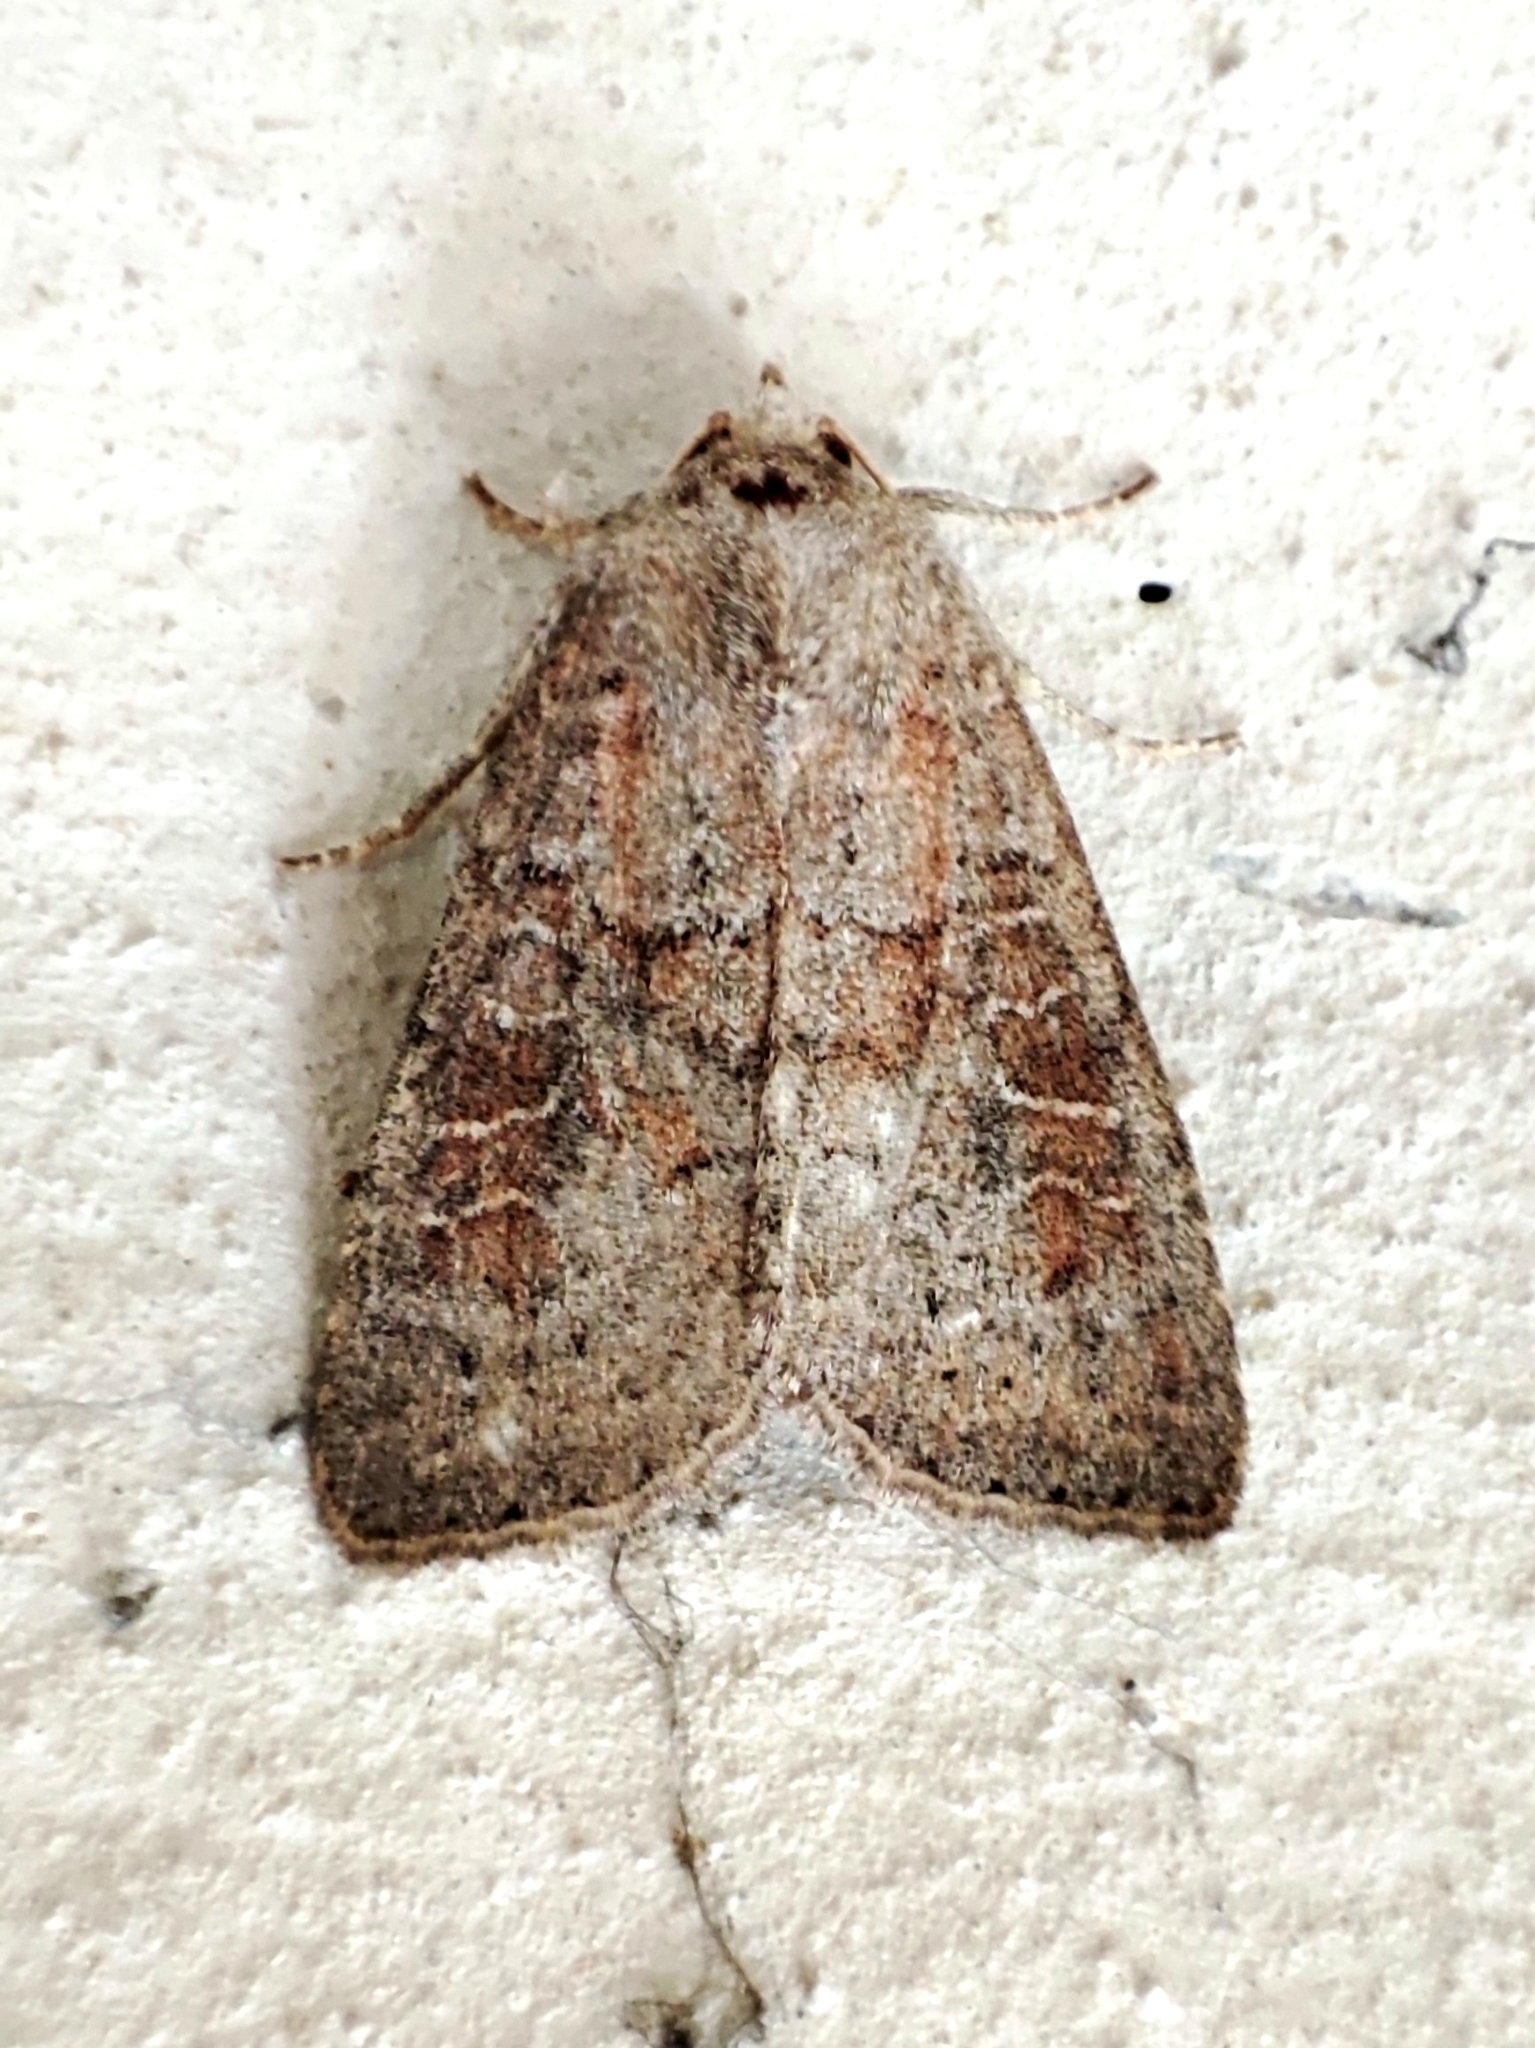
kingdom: Animalia
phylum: Arthropoda
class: Insecta
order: Lepidoptera
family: Noctuidae
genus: Parastichtis
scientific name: Parastichtis suspecta
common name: Suspected
